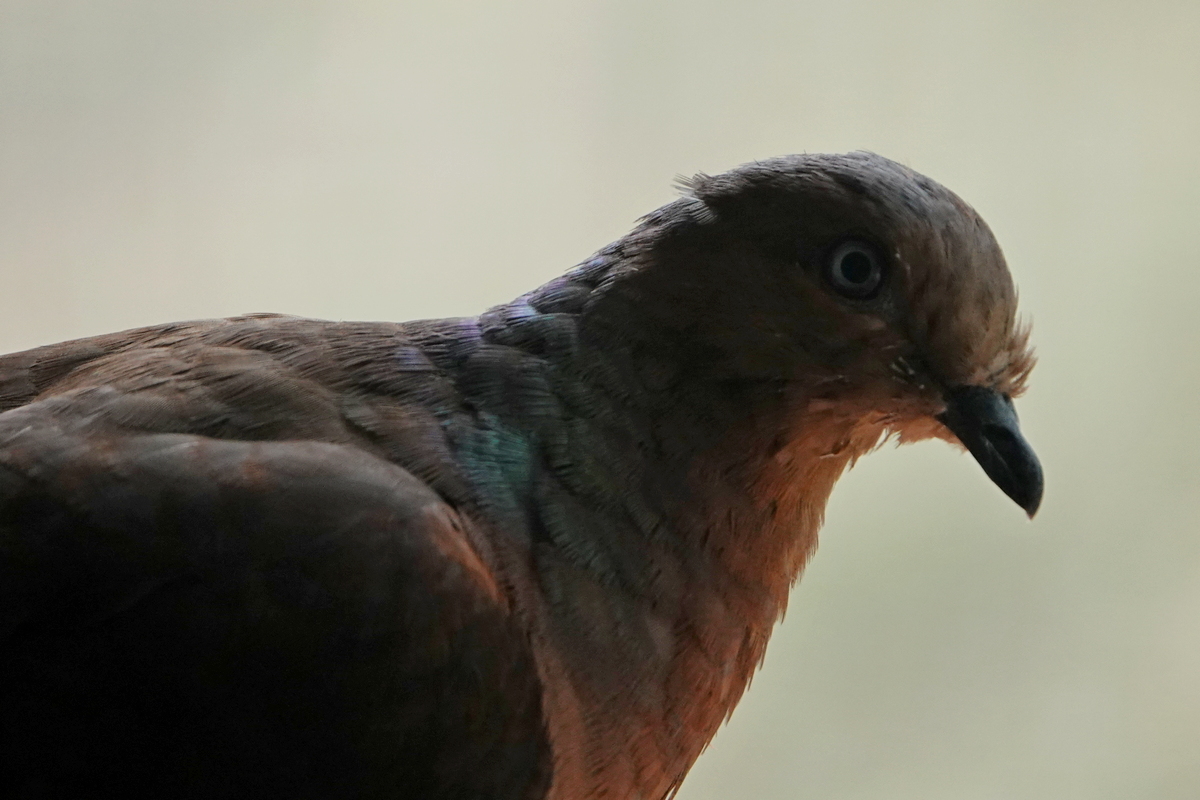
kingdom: Animalia
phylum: Chordata
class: Aves
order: Columbiformes
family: Columbidae
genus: Macropygia
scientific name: Macropygia phasianella
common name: Brown cuckoo-dove
